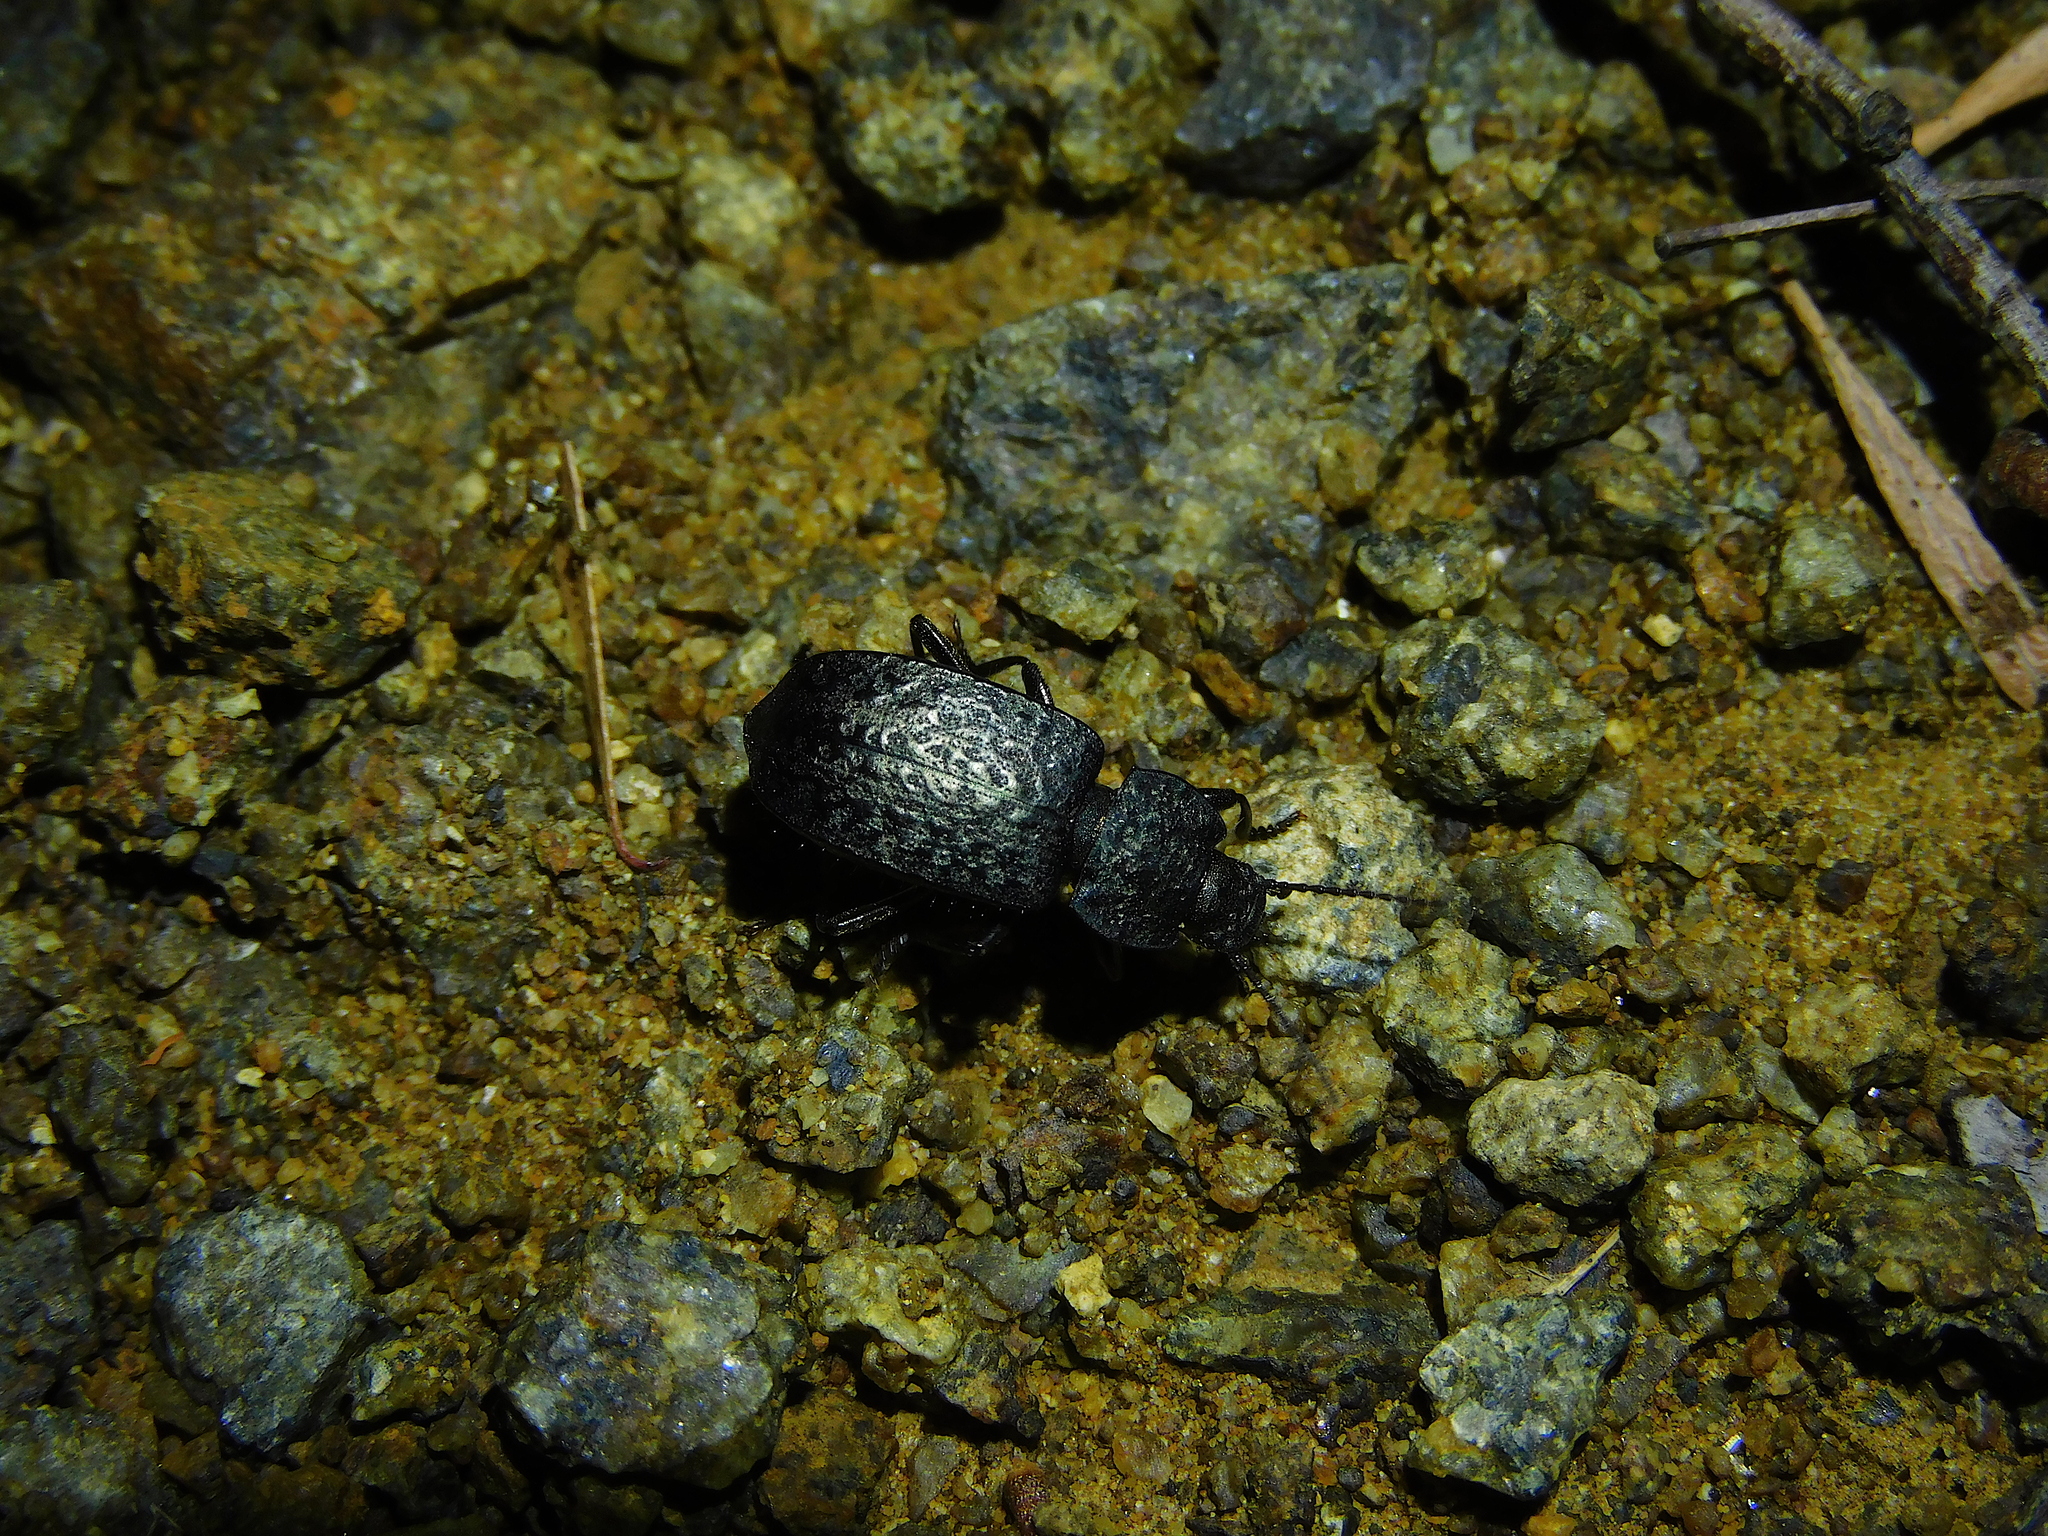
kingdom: Animalia
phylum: Arthropoda
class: Insecta
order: Coleoptera
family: Tenebrionidae
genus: Coripera
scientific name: Coripera deplanata
